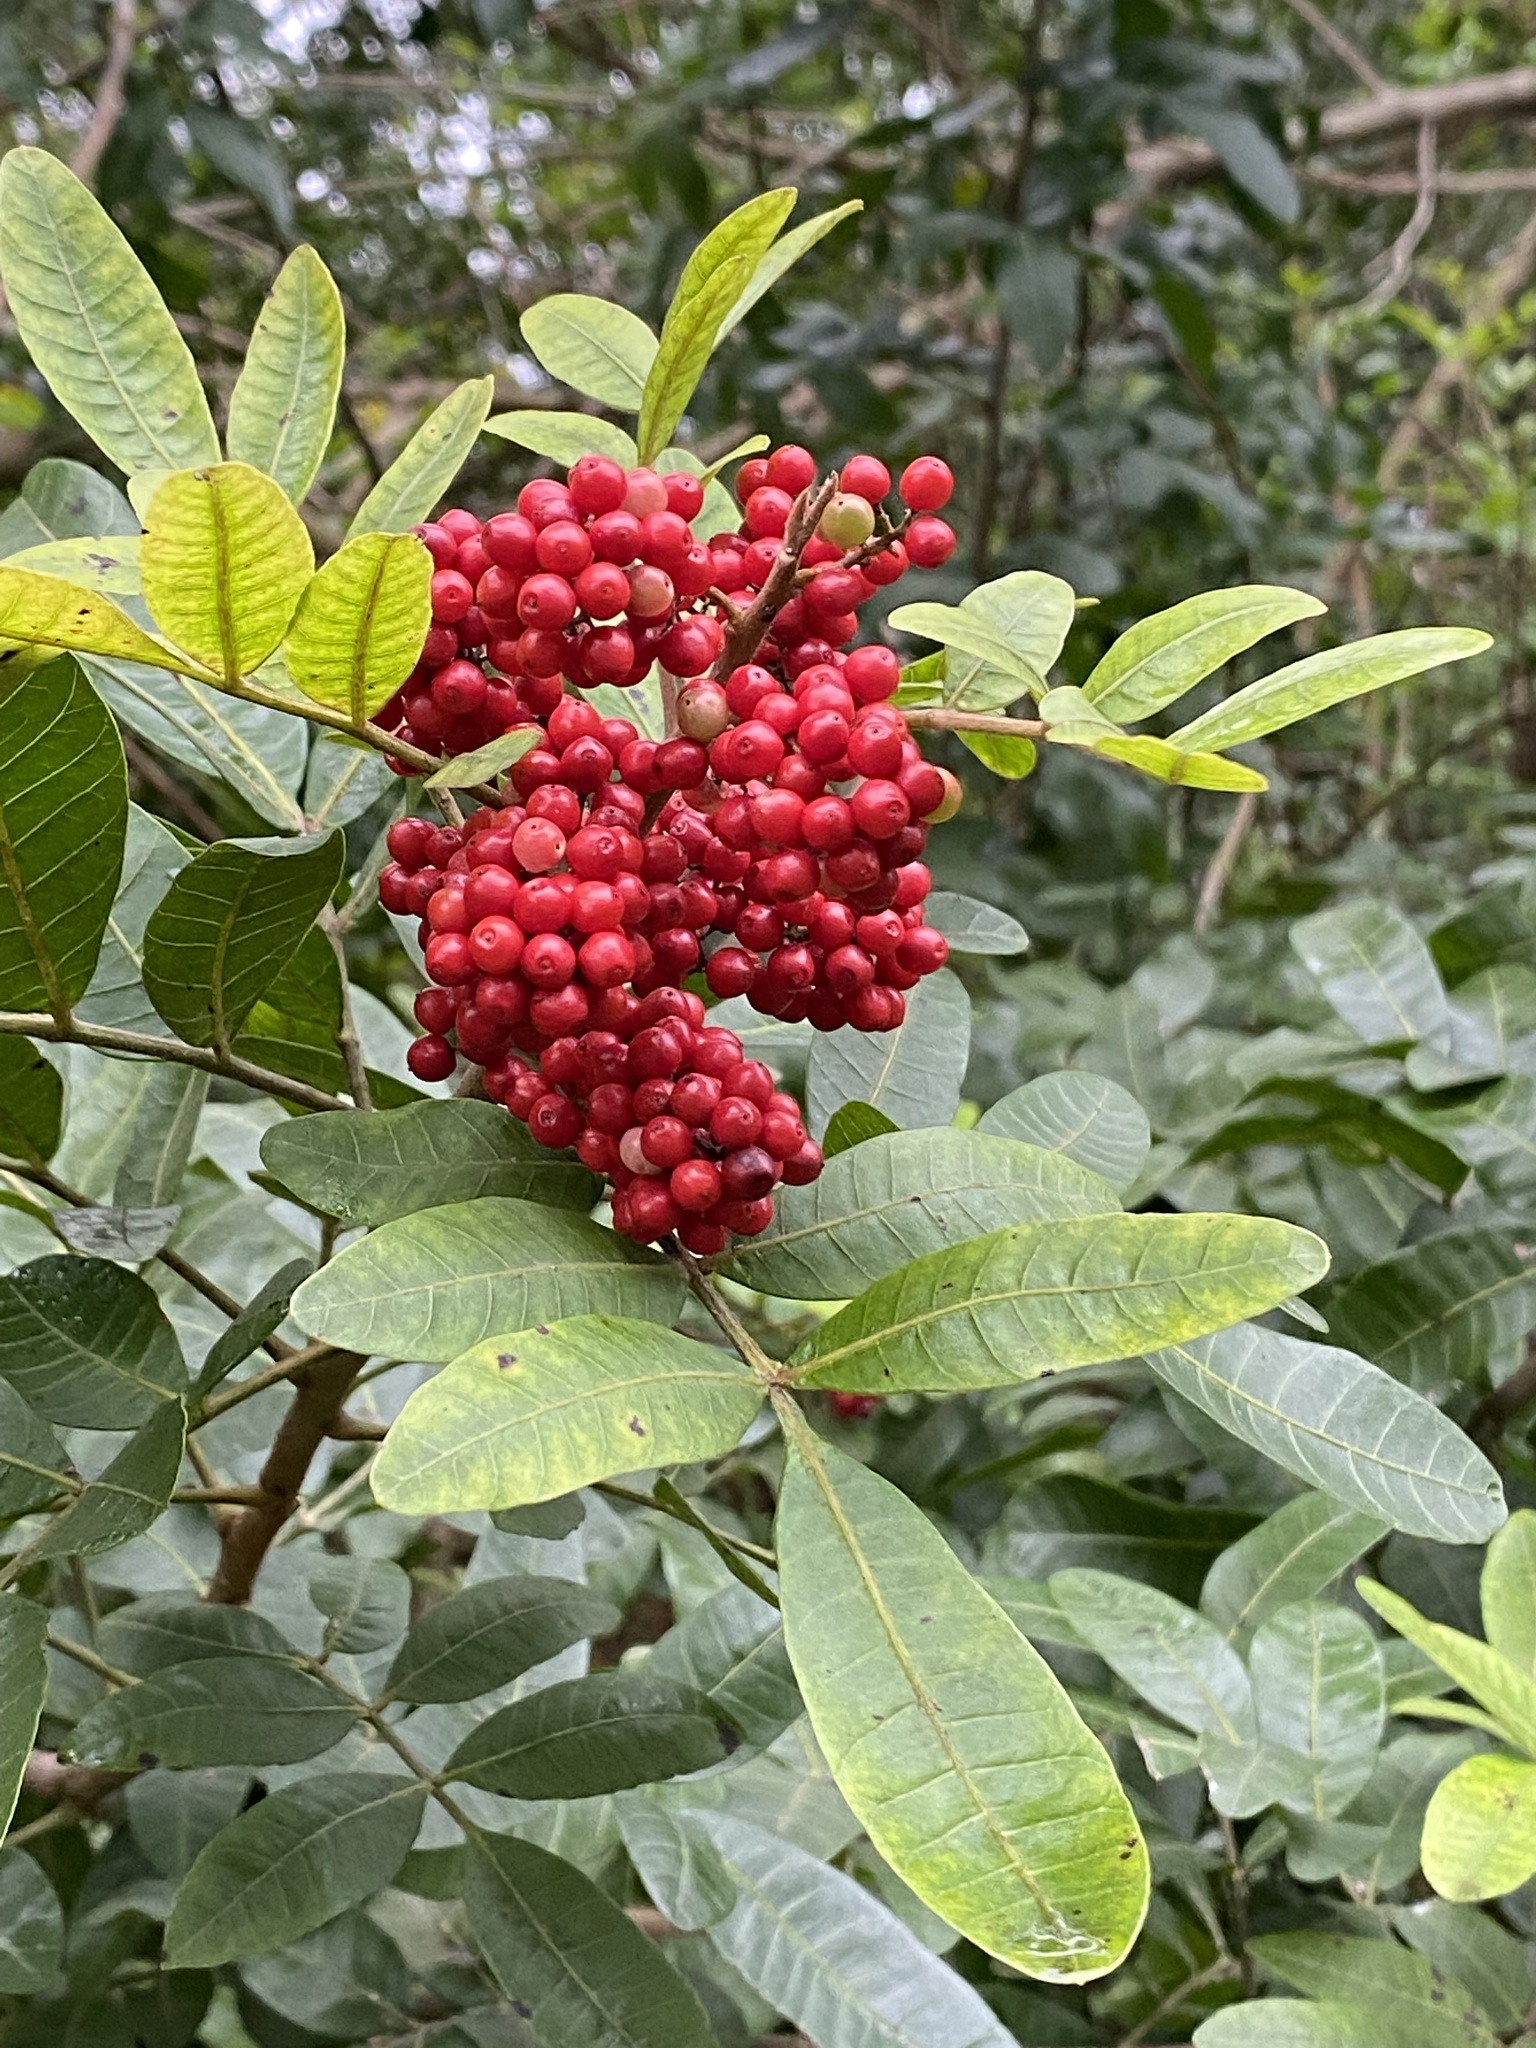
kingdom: Plantae
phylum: Tracheophyta
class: Magnoliopsida
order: Sapindales
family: Anacardiaceae
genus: Schinus
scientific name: Schinus terebinthifolia
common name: Brazilian peppertree
